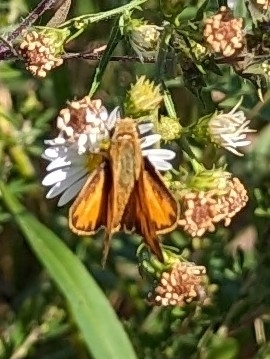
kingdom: Animalia
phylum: Arthropoda
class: Insecta
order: Lepidoptera
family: Hesperiidae
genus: Hylephila
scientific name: Hylephila phyleus
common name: Fiery skipper
